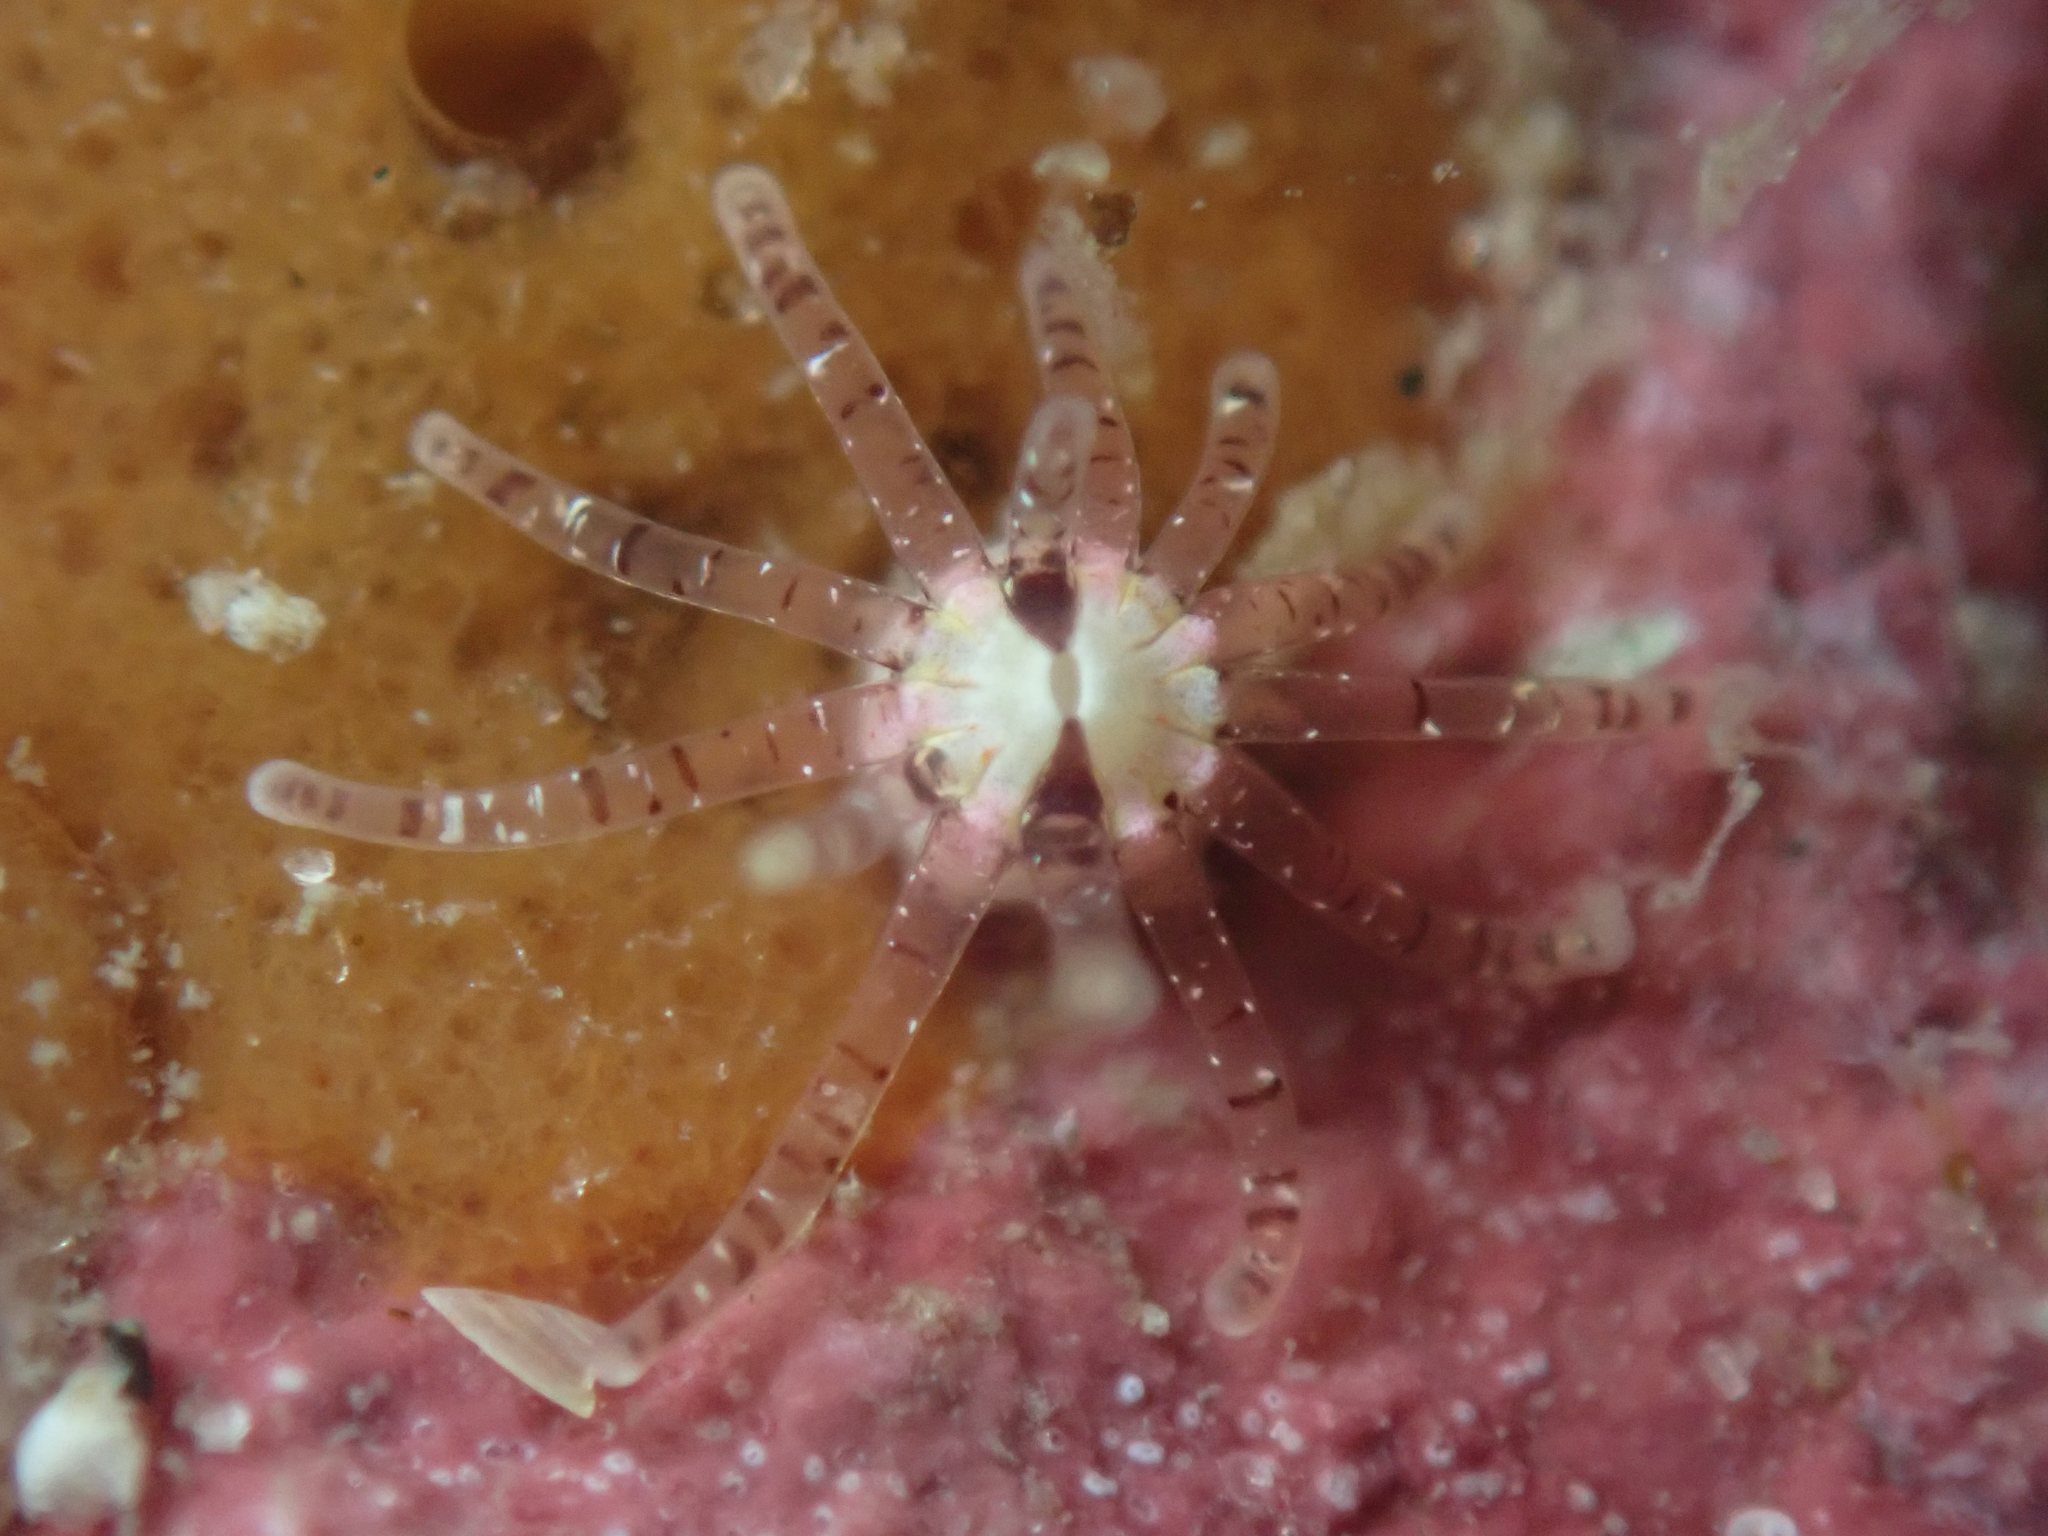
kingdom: Animalia
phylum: Cnidaria
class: Anthozoa
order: Actiniaria
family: Edwardsiidae
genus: Scolanthus
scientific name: Scolanthus scamiti
